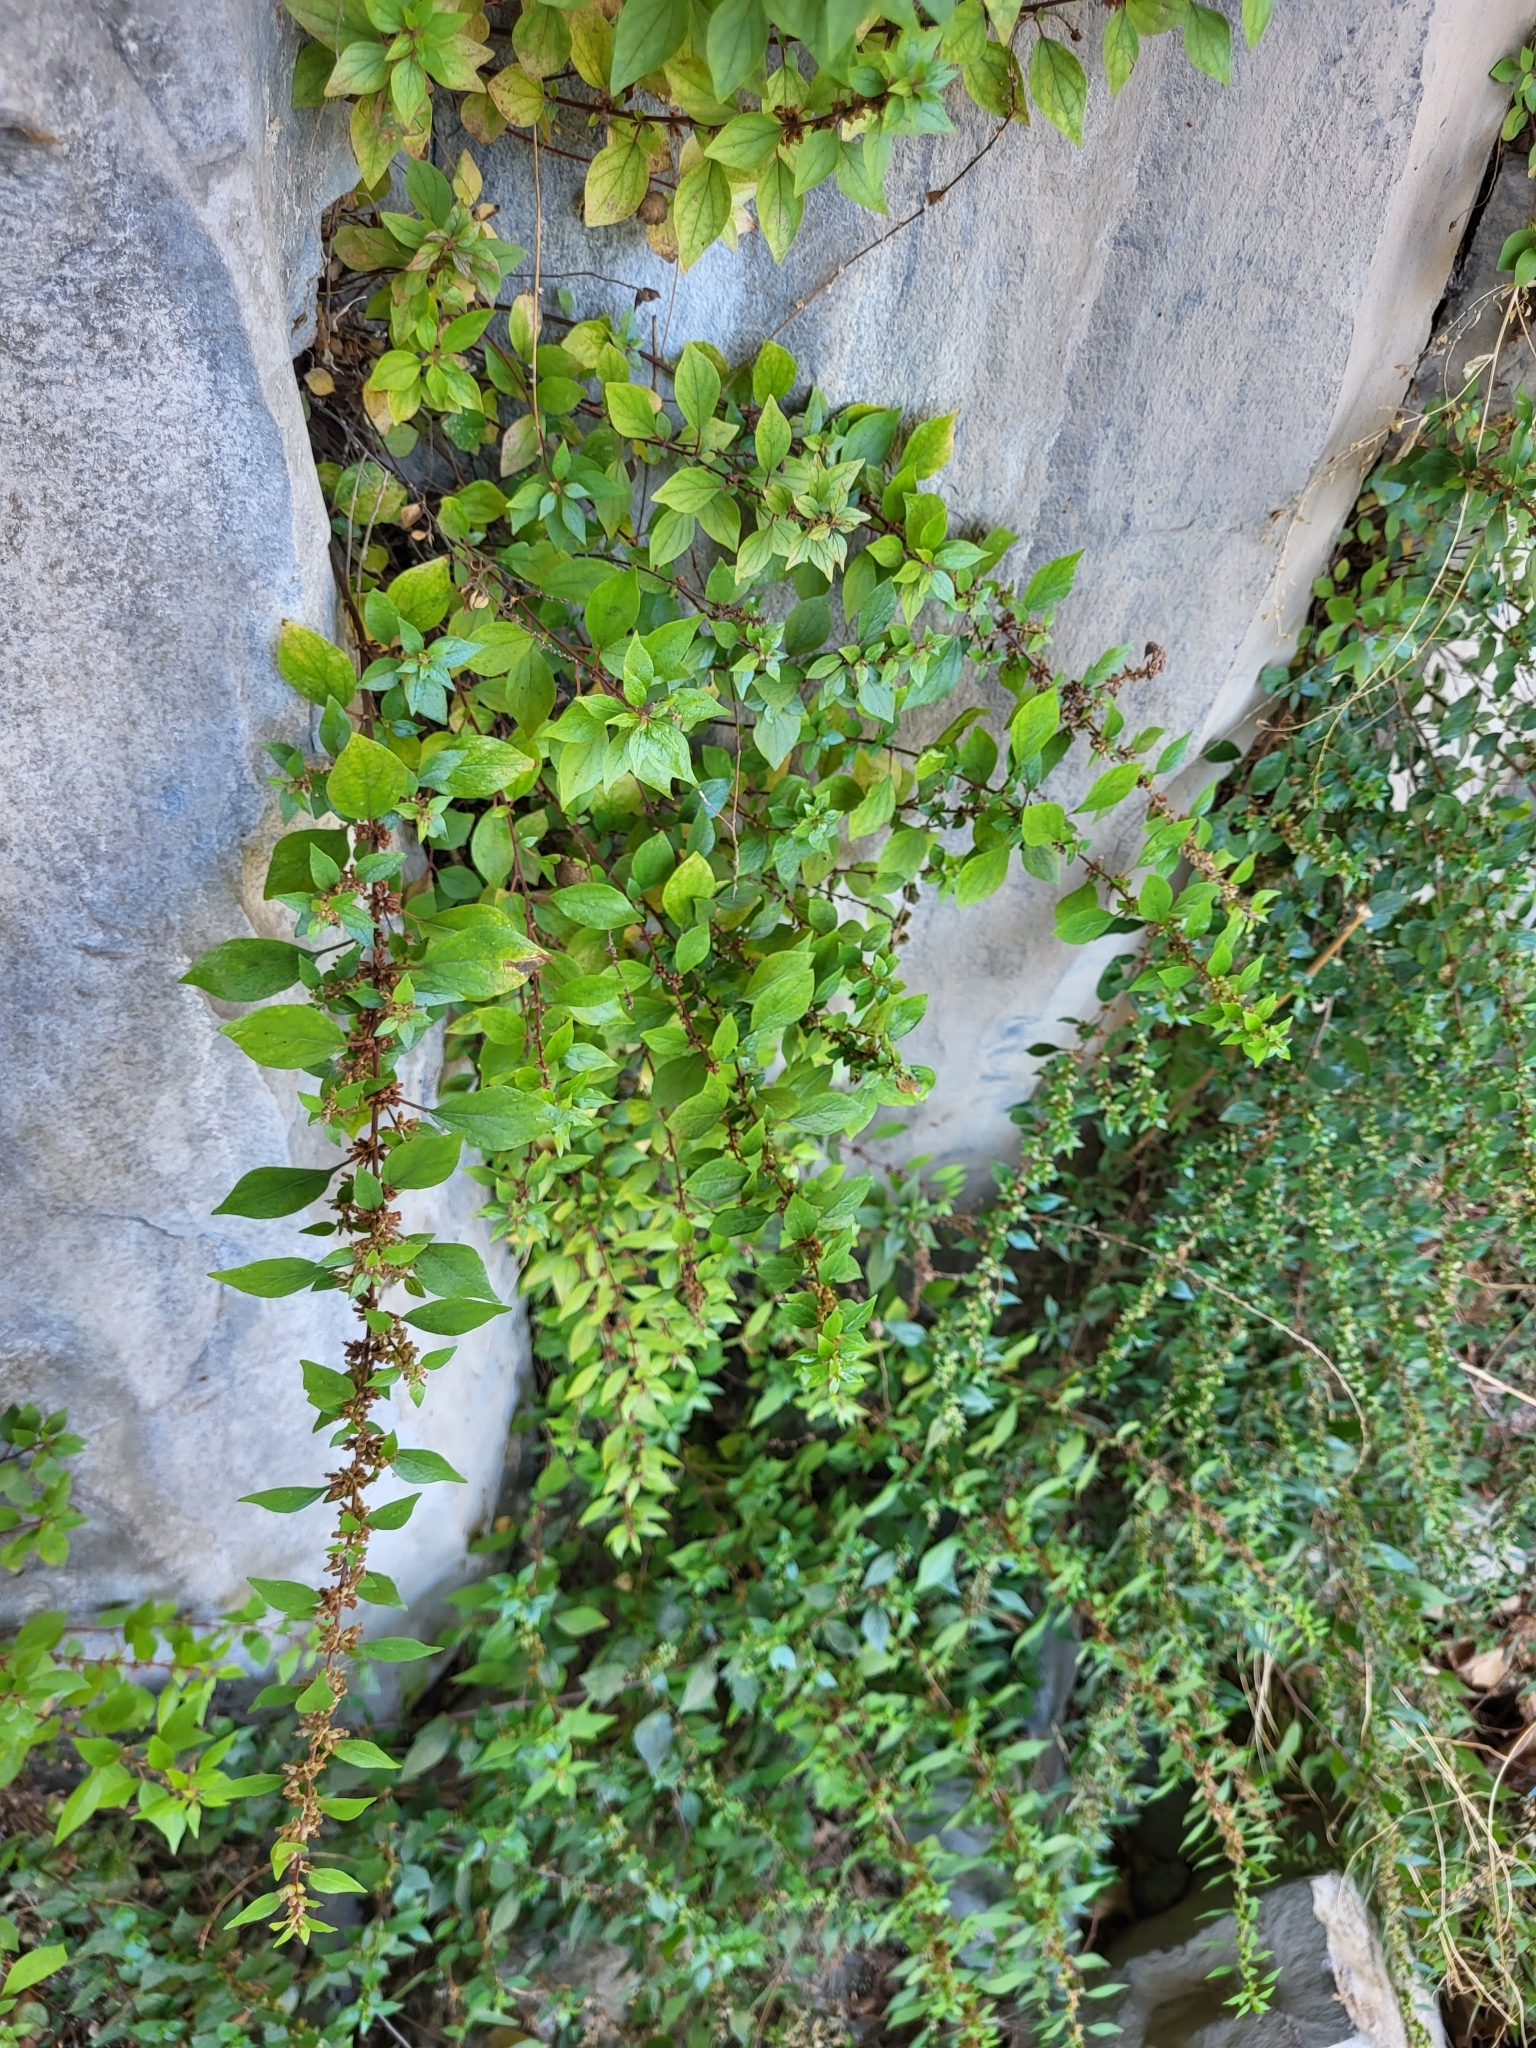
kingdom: Plantae
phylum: Tracheophyta
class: Magnoliopsida
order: Rosales
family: Urticaceae
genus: Parietaria
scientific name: Parietaria judaica
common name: Pellitory-of-the-wall
